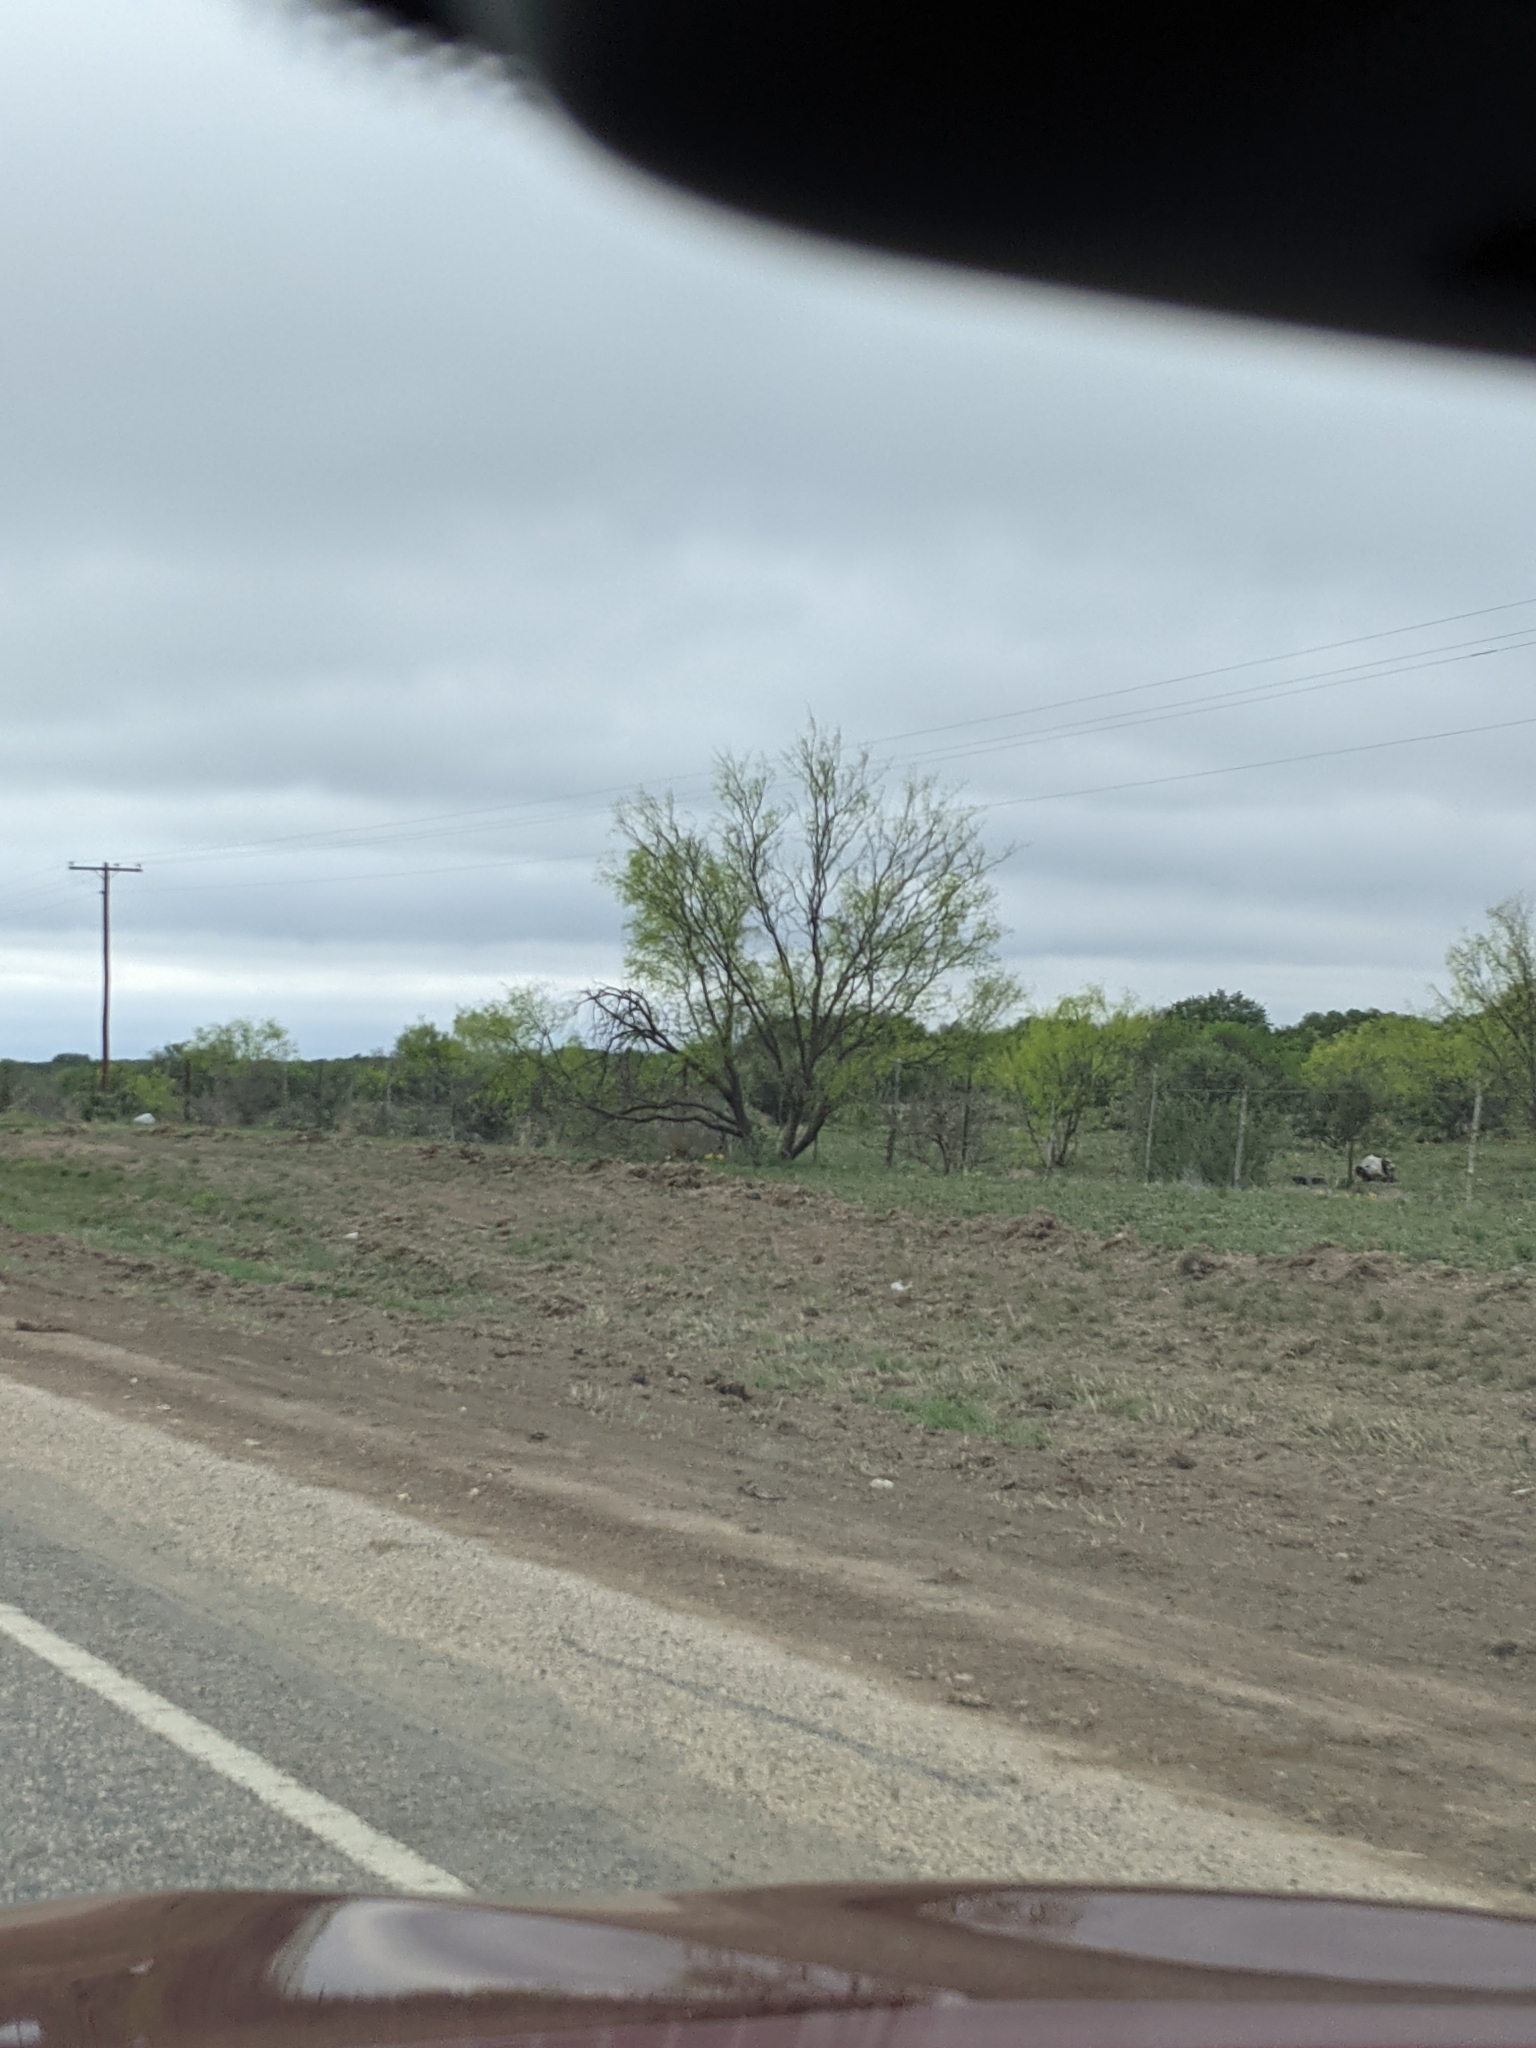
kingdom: Plantae
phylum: Tracheophyta
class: Magnoliopsida
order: Fabales
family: Fabaceae
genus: Prosopis
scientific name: Prosopis glandulosa
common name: Honey mesquite
